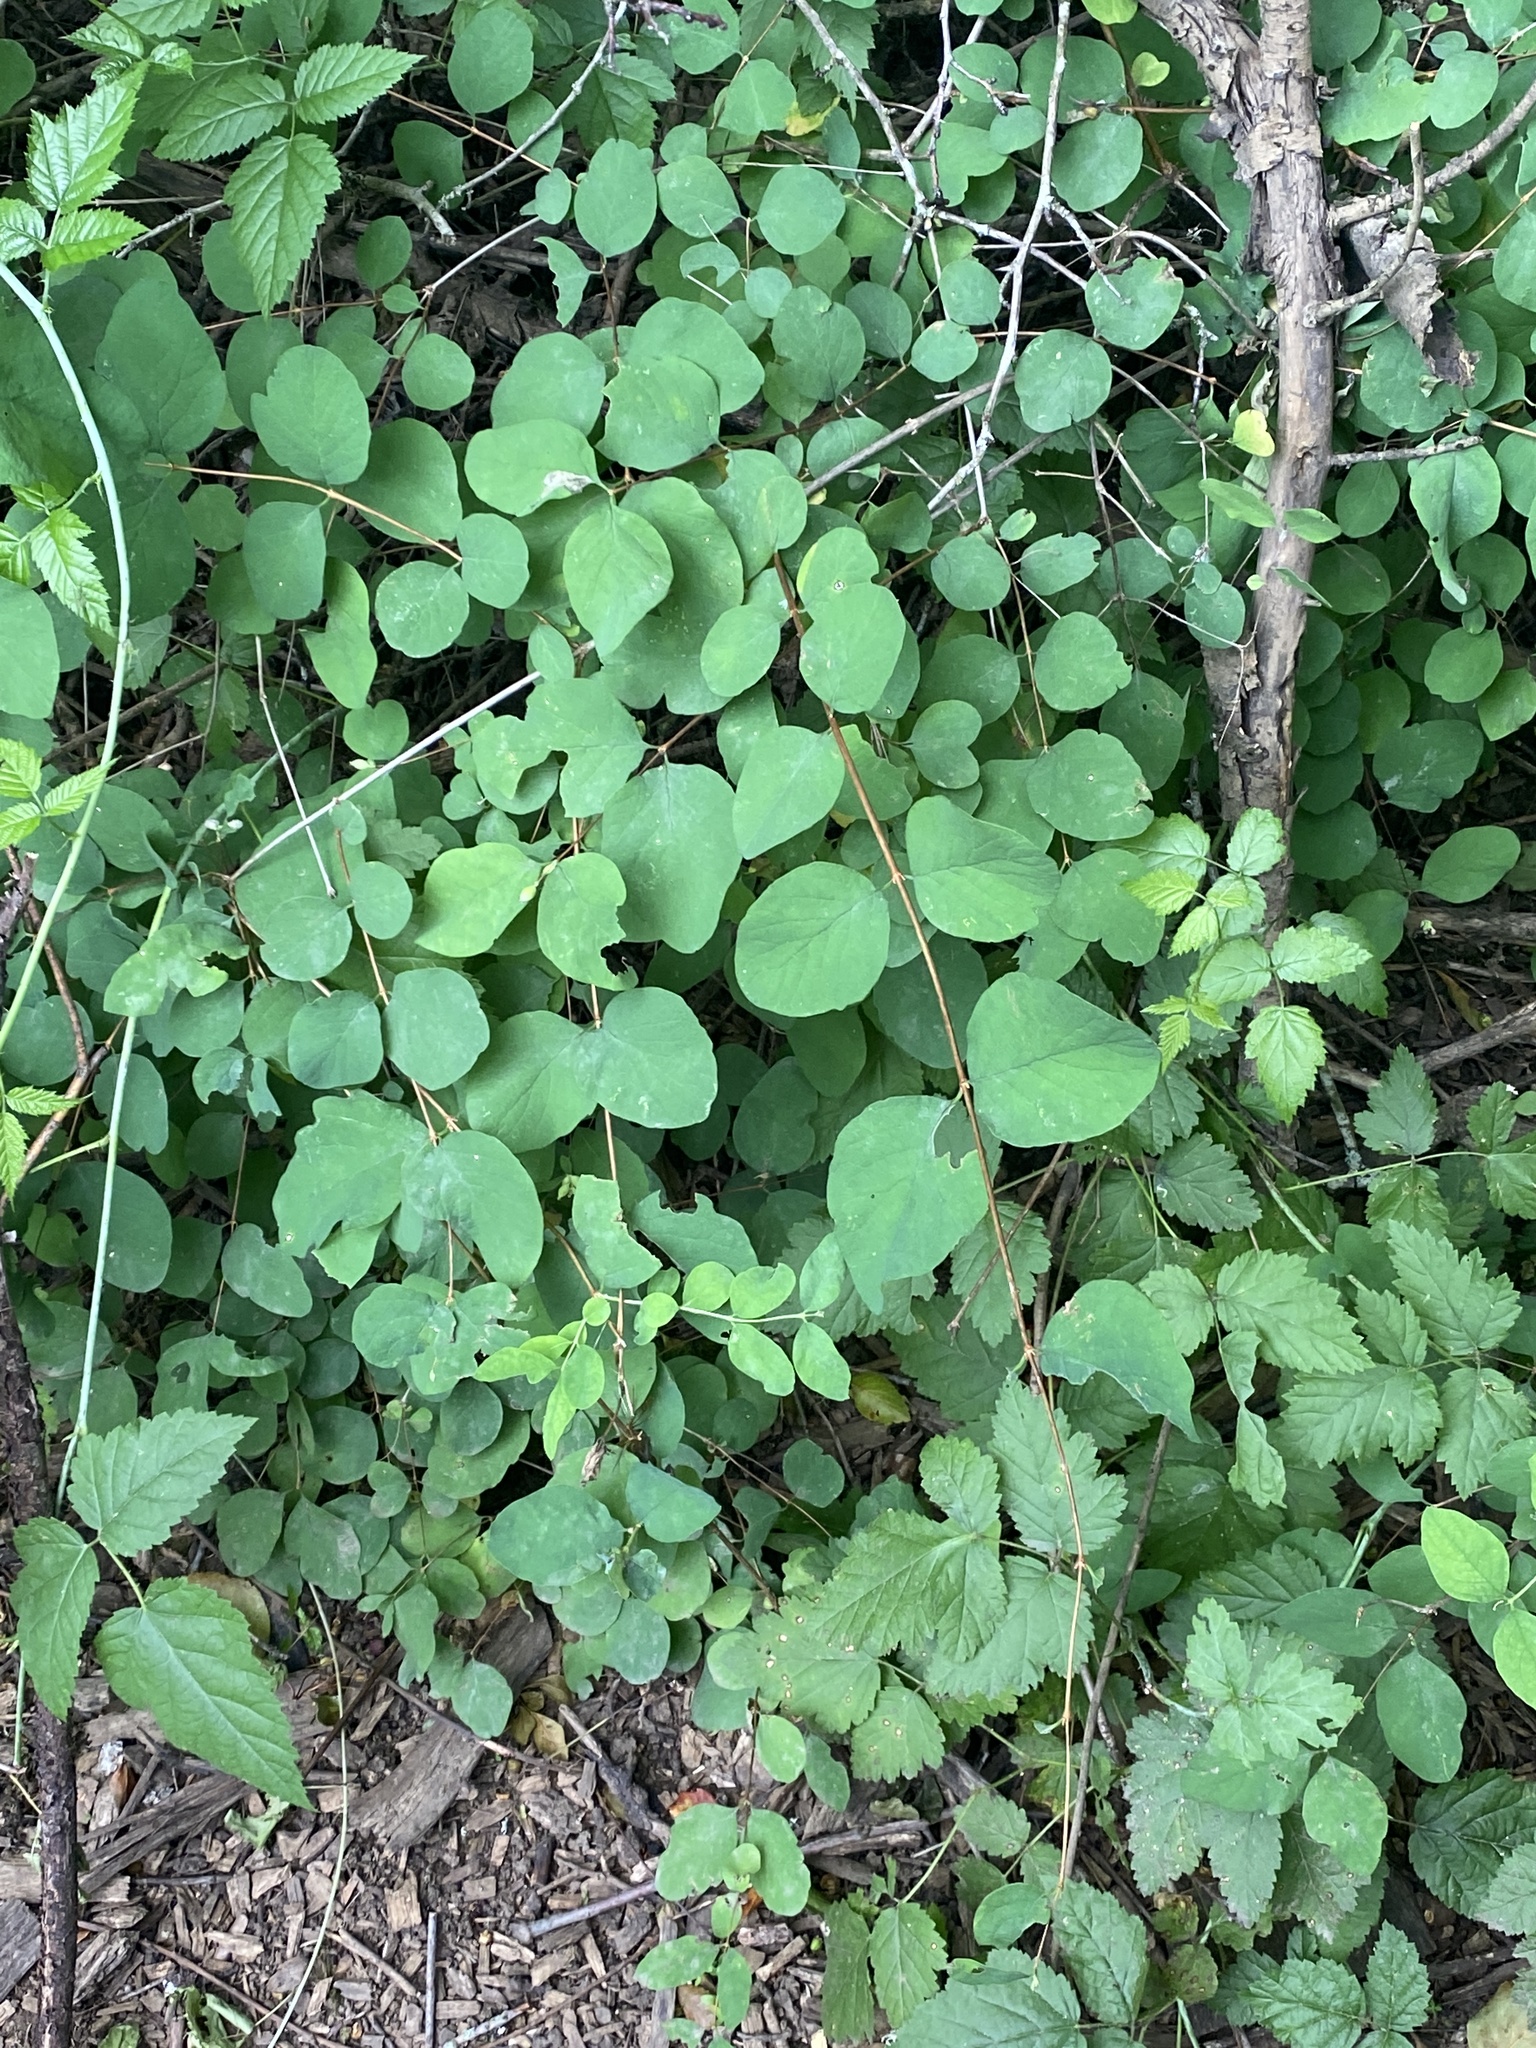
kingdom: Plantae
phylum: Tracheophyta
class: Magnoliopsida
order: Dipsacales
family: Caprifoliaceae
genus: Symphoricarpos
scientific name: Symphoricarpos albus
